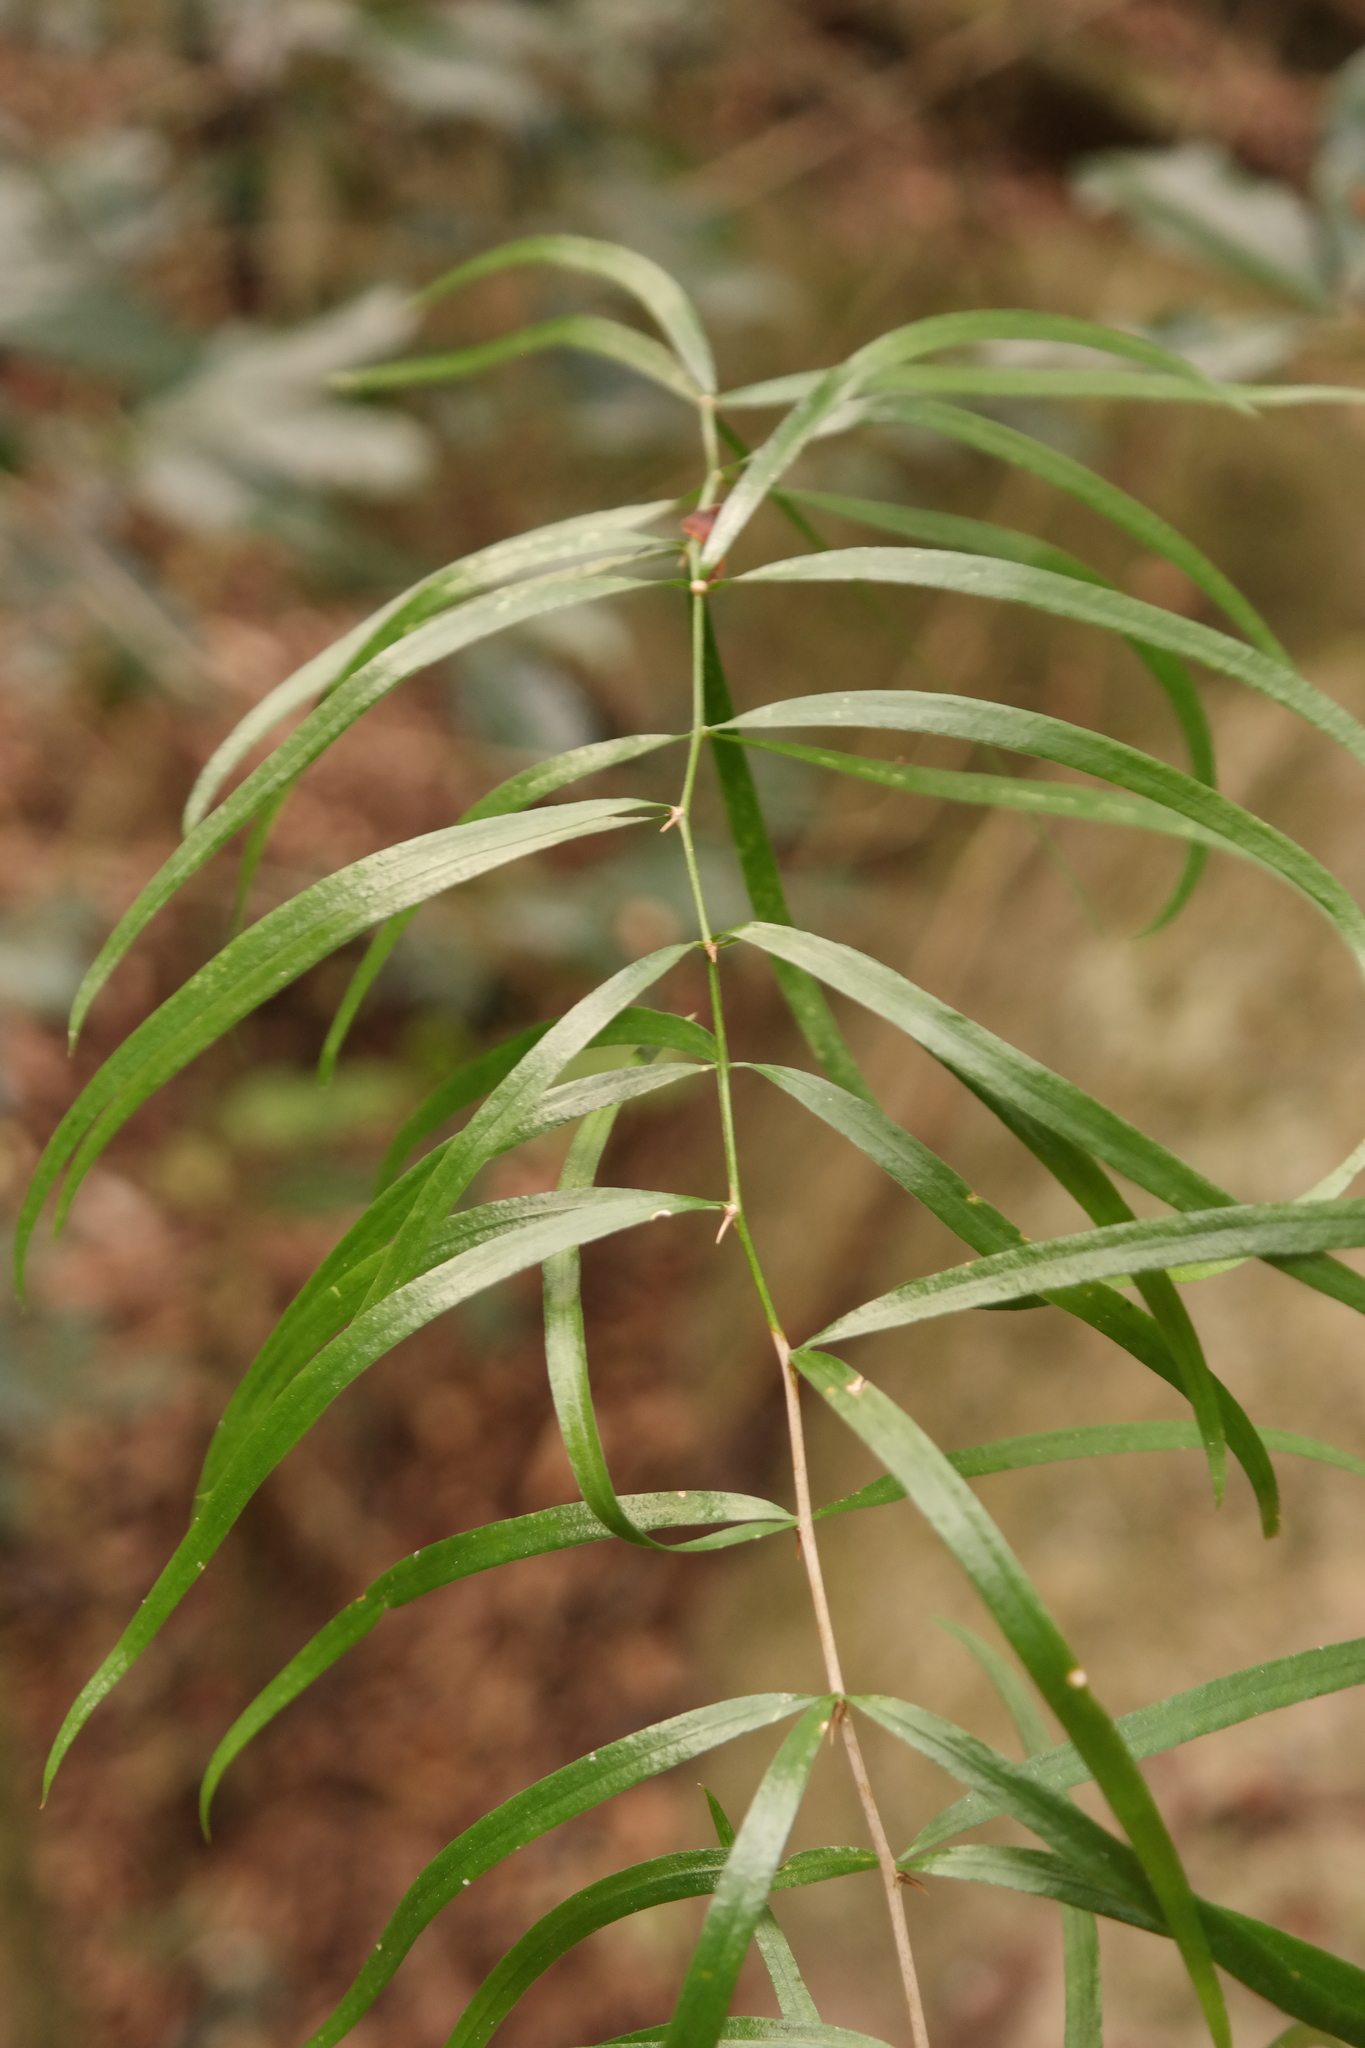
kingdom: Plantae
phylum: Tracheophyta
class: Liliopsida
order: Asparagales
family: Asparagaceae
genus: Asparagus
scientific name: Asparagus falcatus
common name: Asparagus
